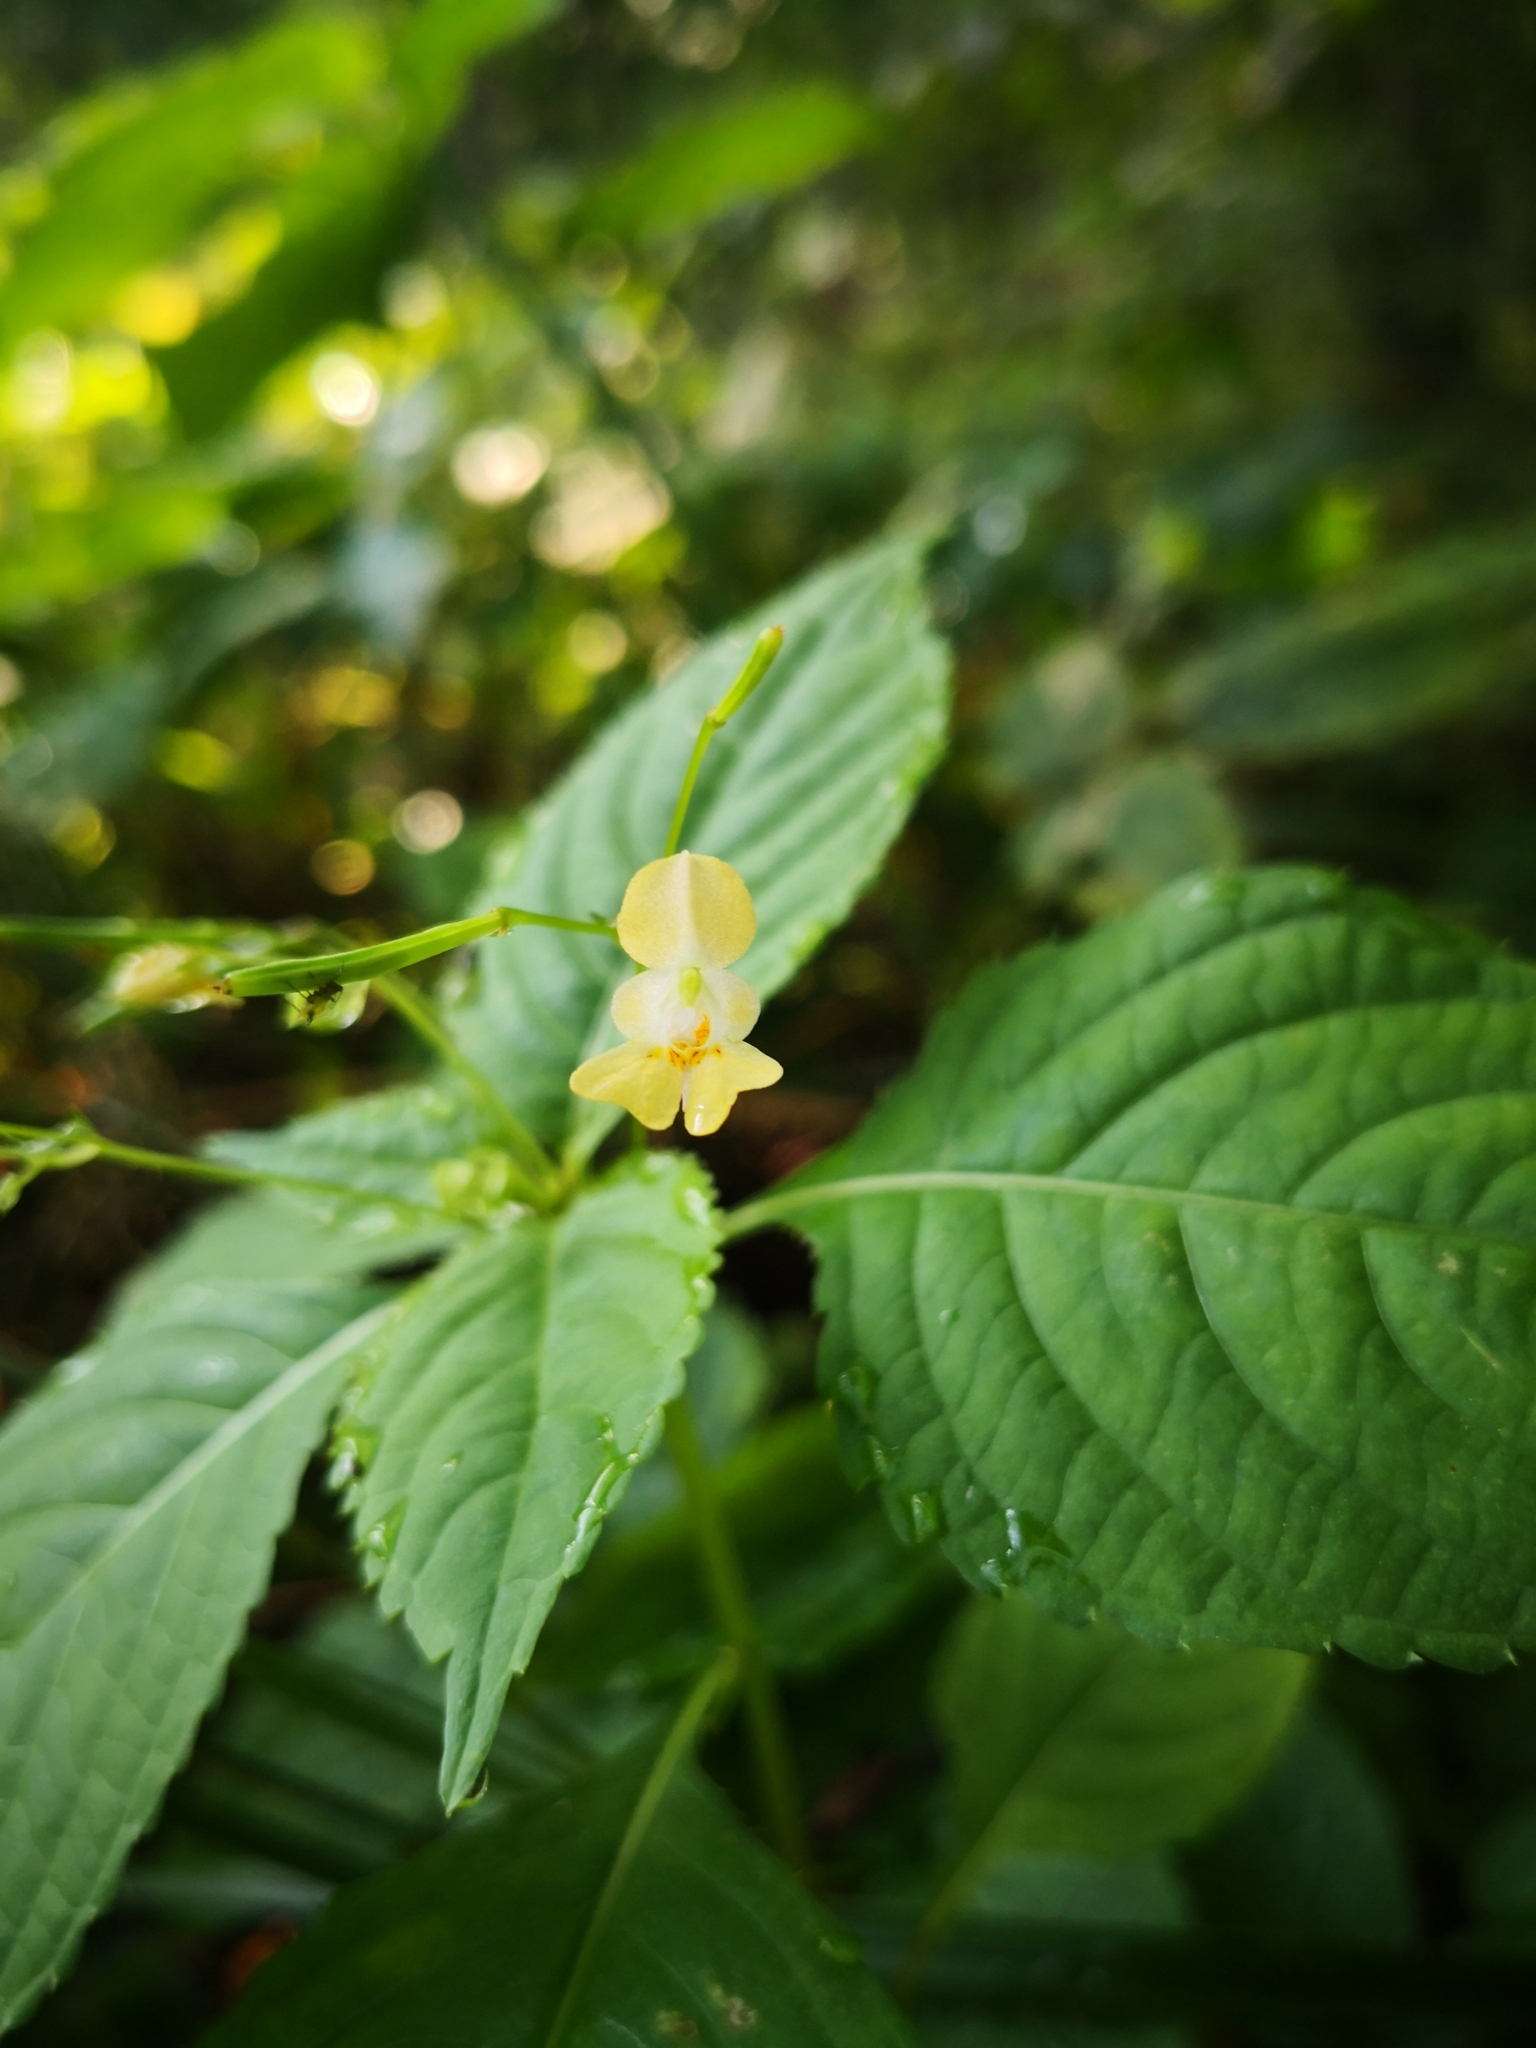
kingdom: Plantae
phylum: Tracheophyta
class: Magnoliopsida
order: Ericales
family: Balsaminaceae
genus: Impatiens
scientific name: Impatiens parviflora
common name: Small balsam
